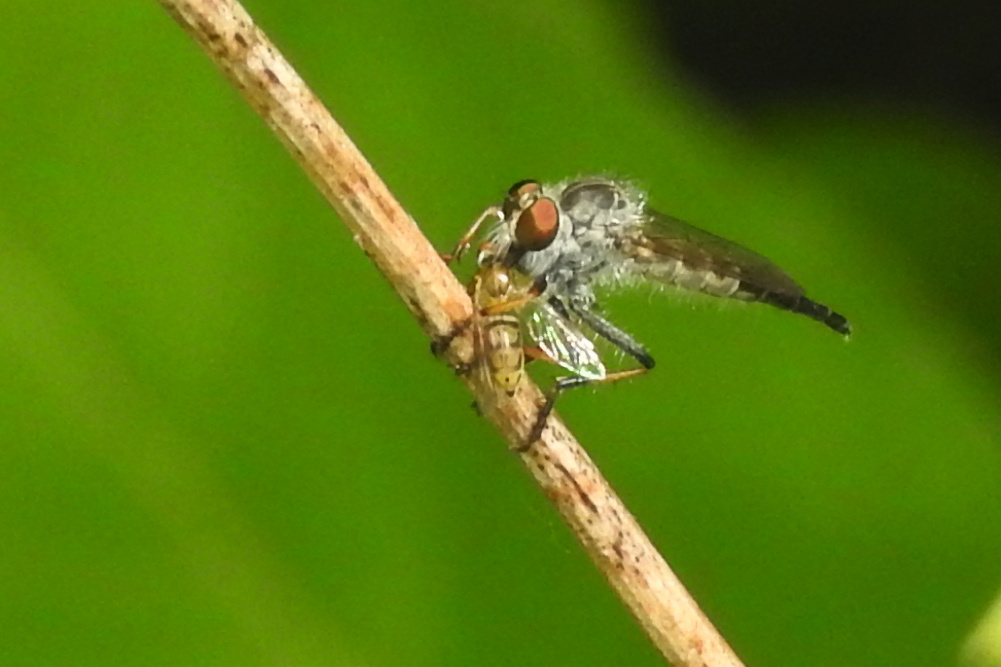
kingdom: Animalia
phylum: Arthropoda
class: Insecta
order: Diptera
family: Syrphidae
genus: Toxomerus
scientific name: Toxomerus marginatus
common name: Syrphid fly
